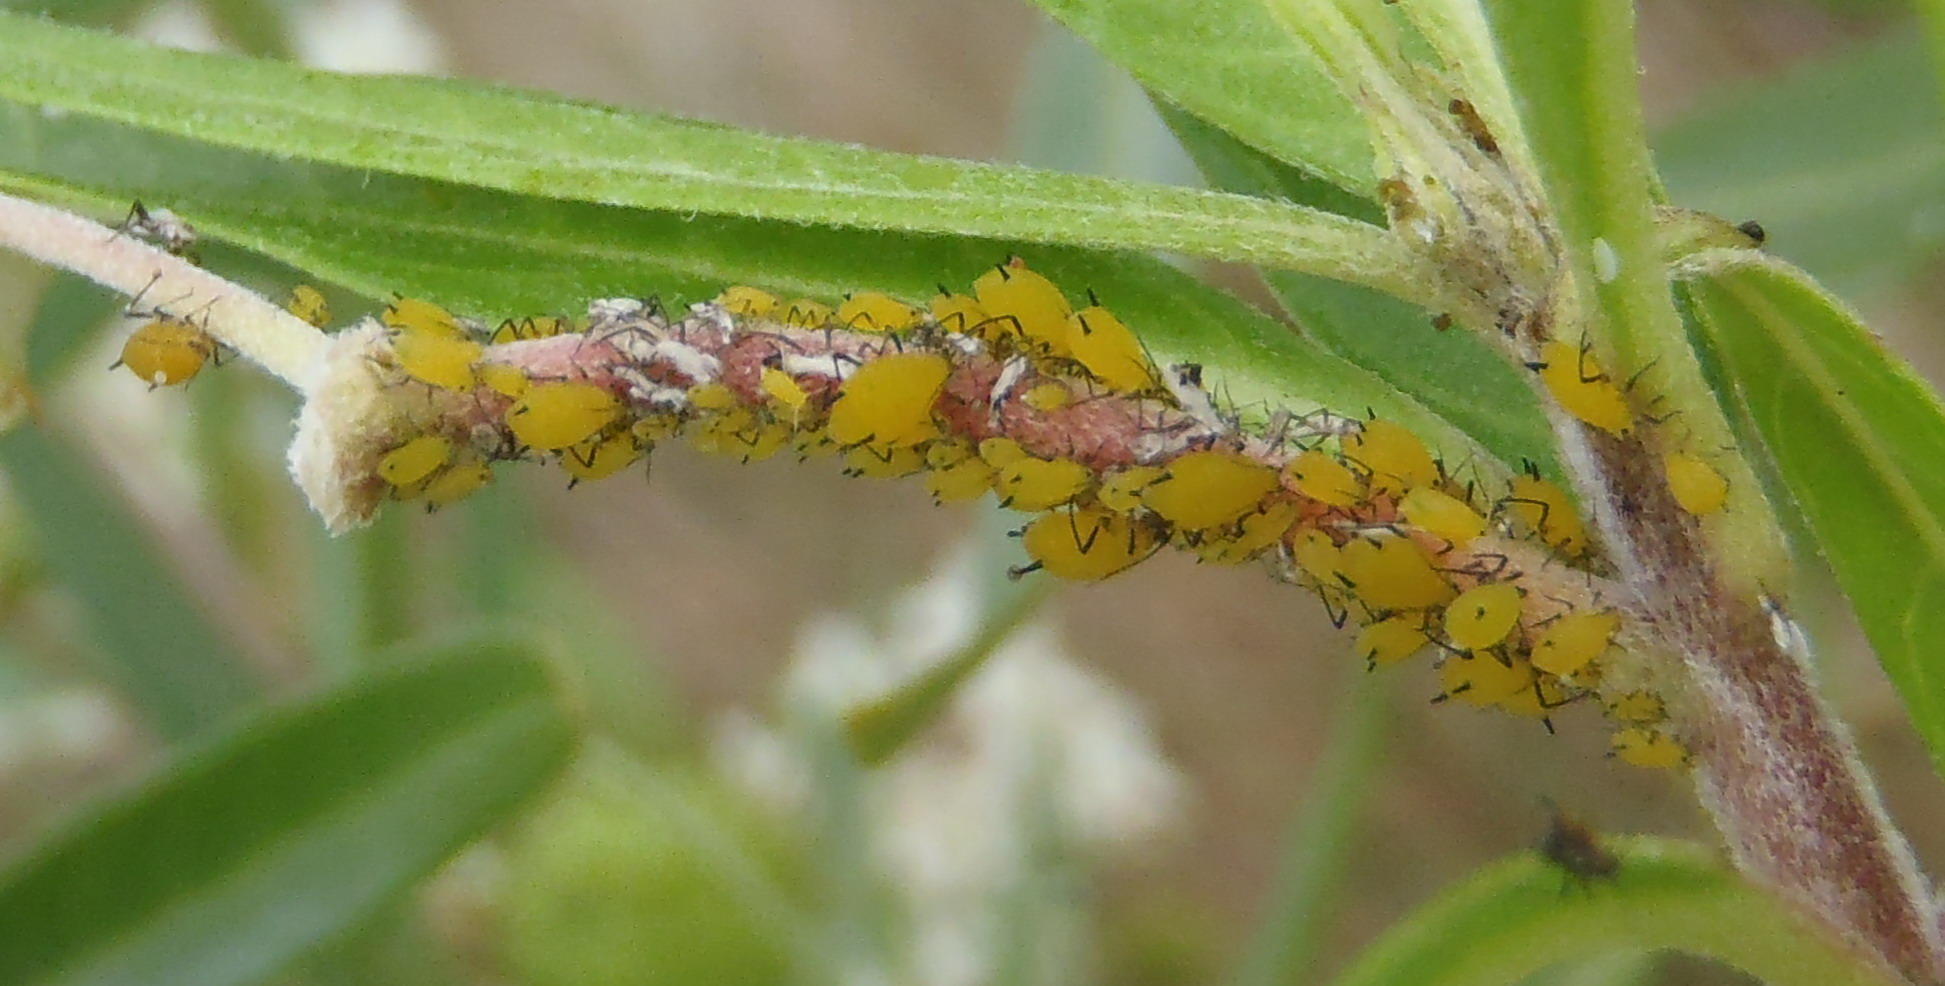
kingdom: Animalia
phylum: Arthropoda
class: Insecta
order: Hemiptera
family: Aphididae
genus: Aphis
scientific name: Aphis nerii
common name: Oleander aphid
